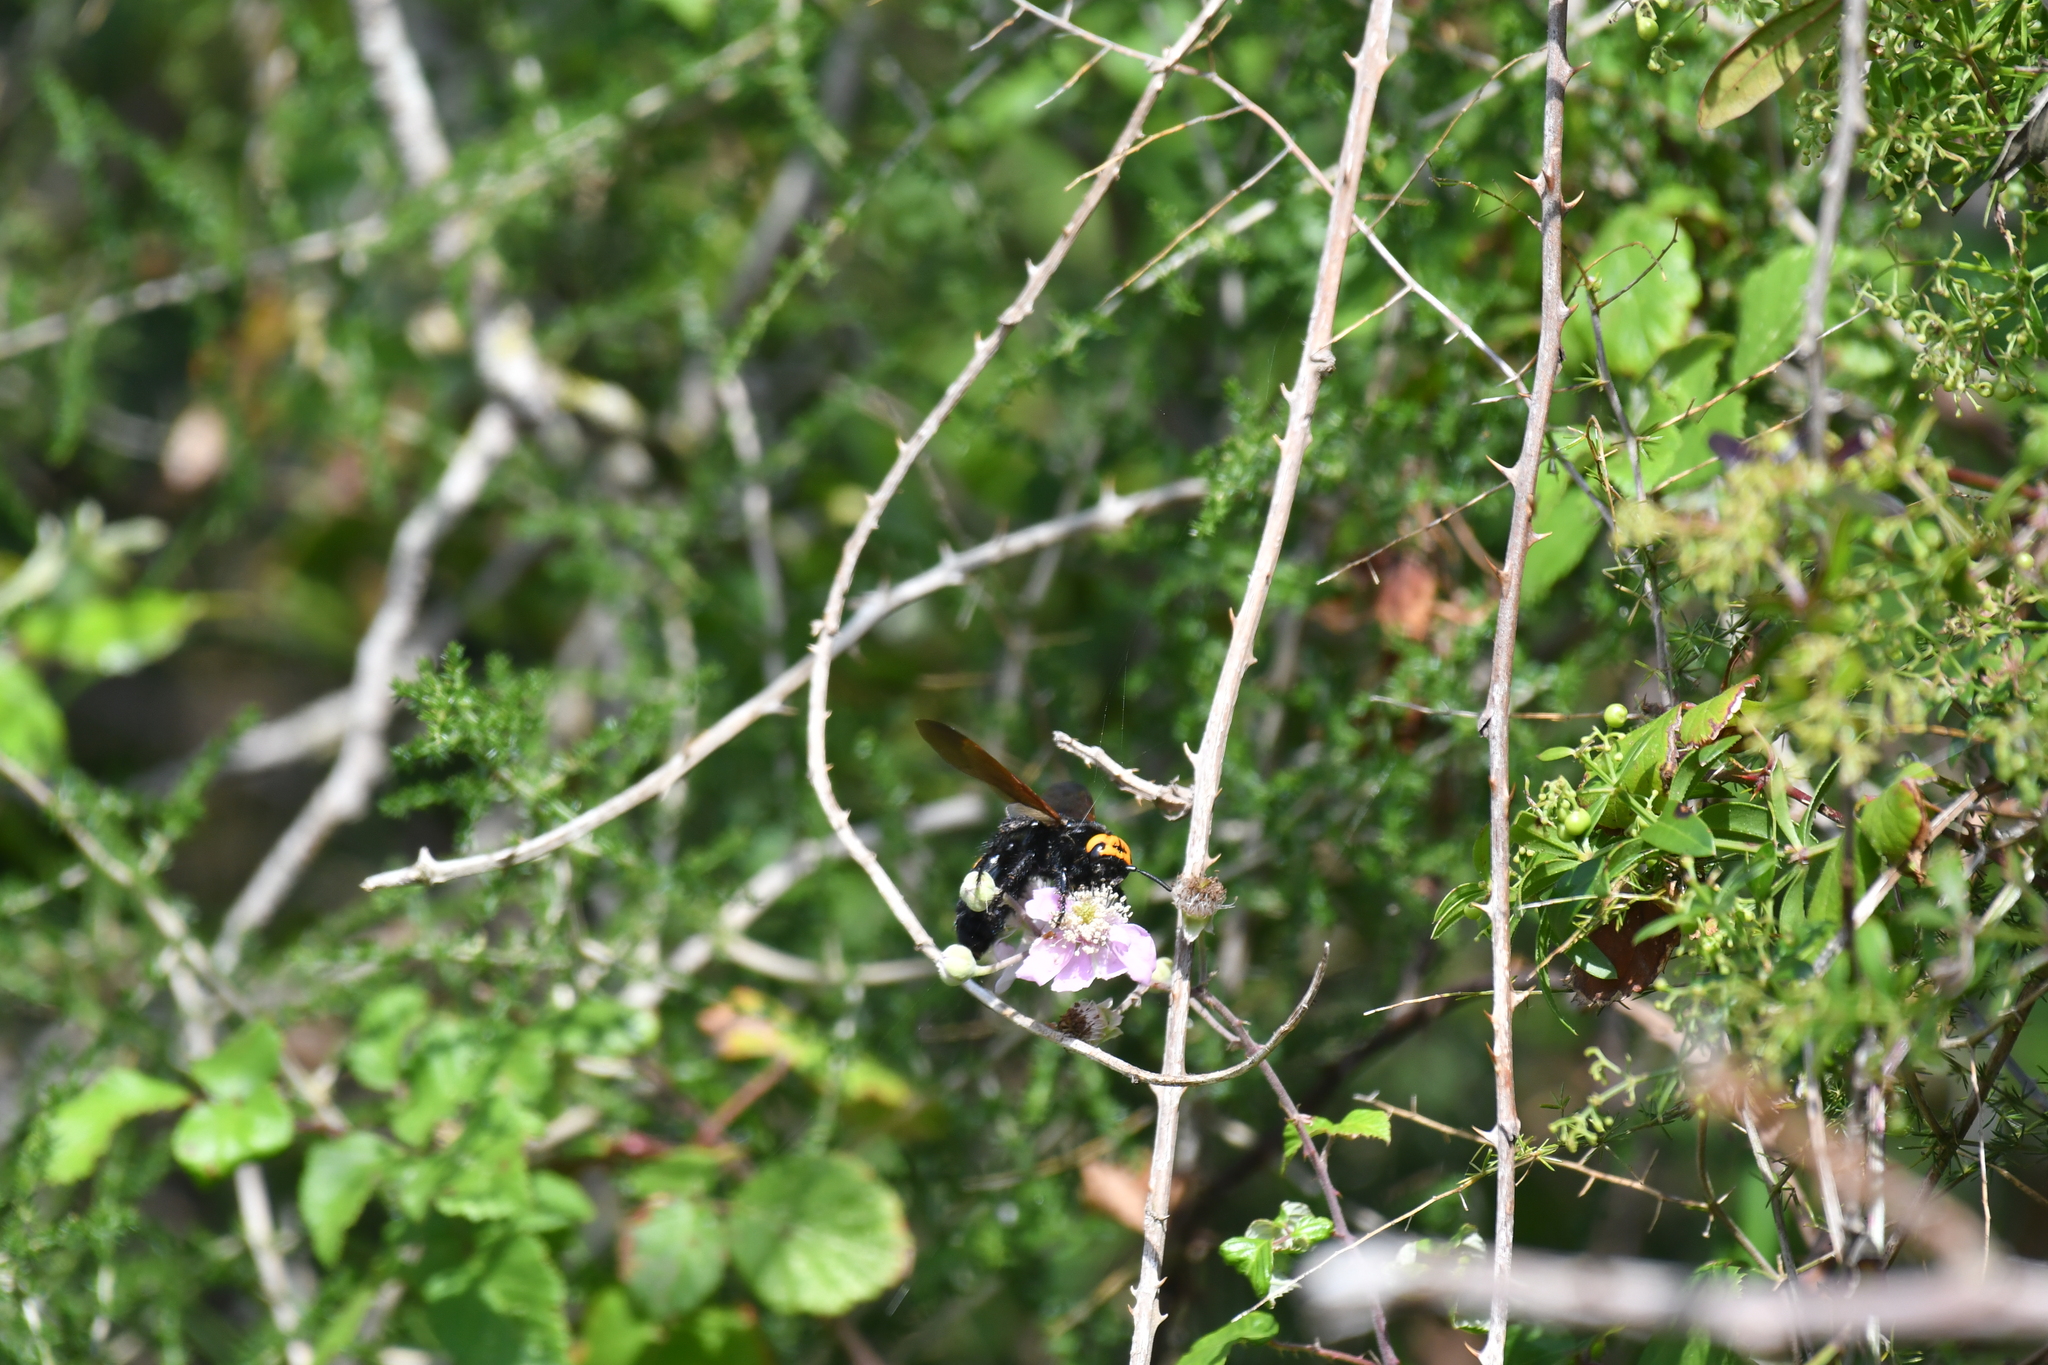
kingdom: Animalia
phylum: Arthropoda
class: Insecta
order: Hymenoptera
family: Scoliidae
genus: Megascolia
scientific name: Megascolia maculata
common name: Mammoth wasp
